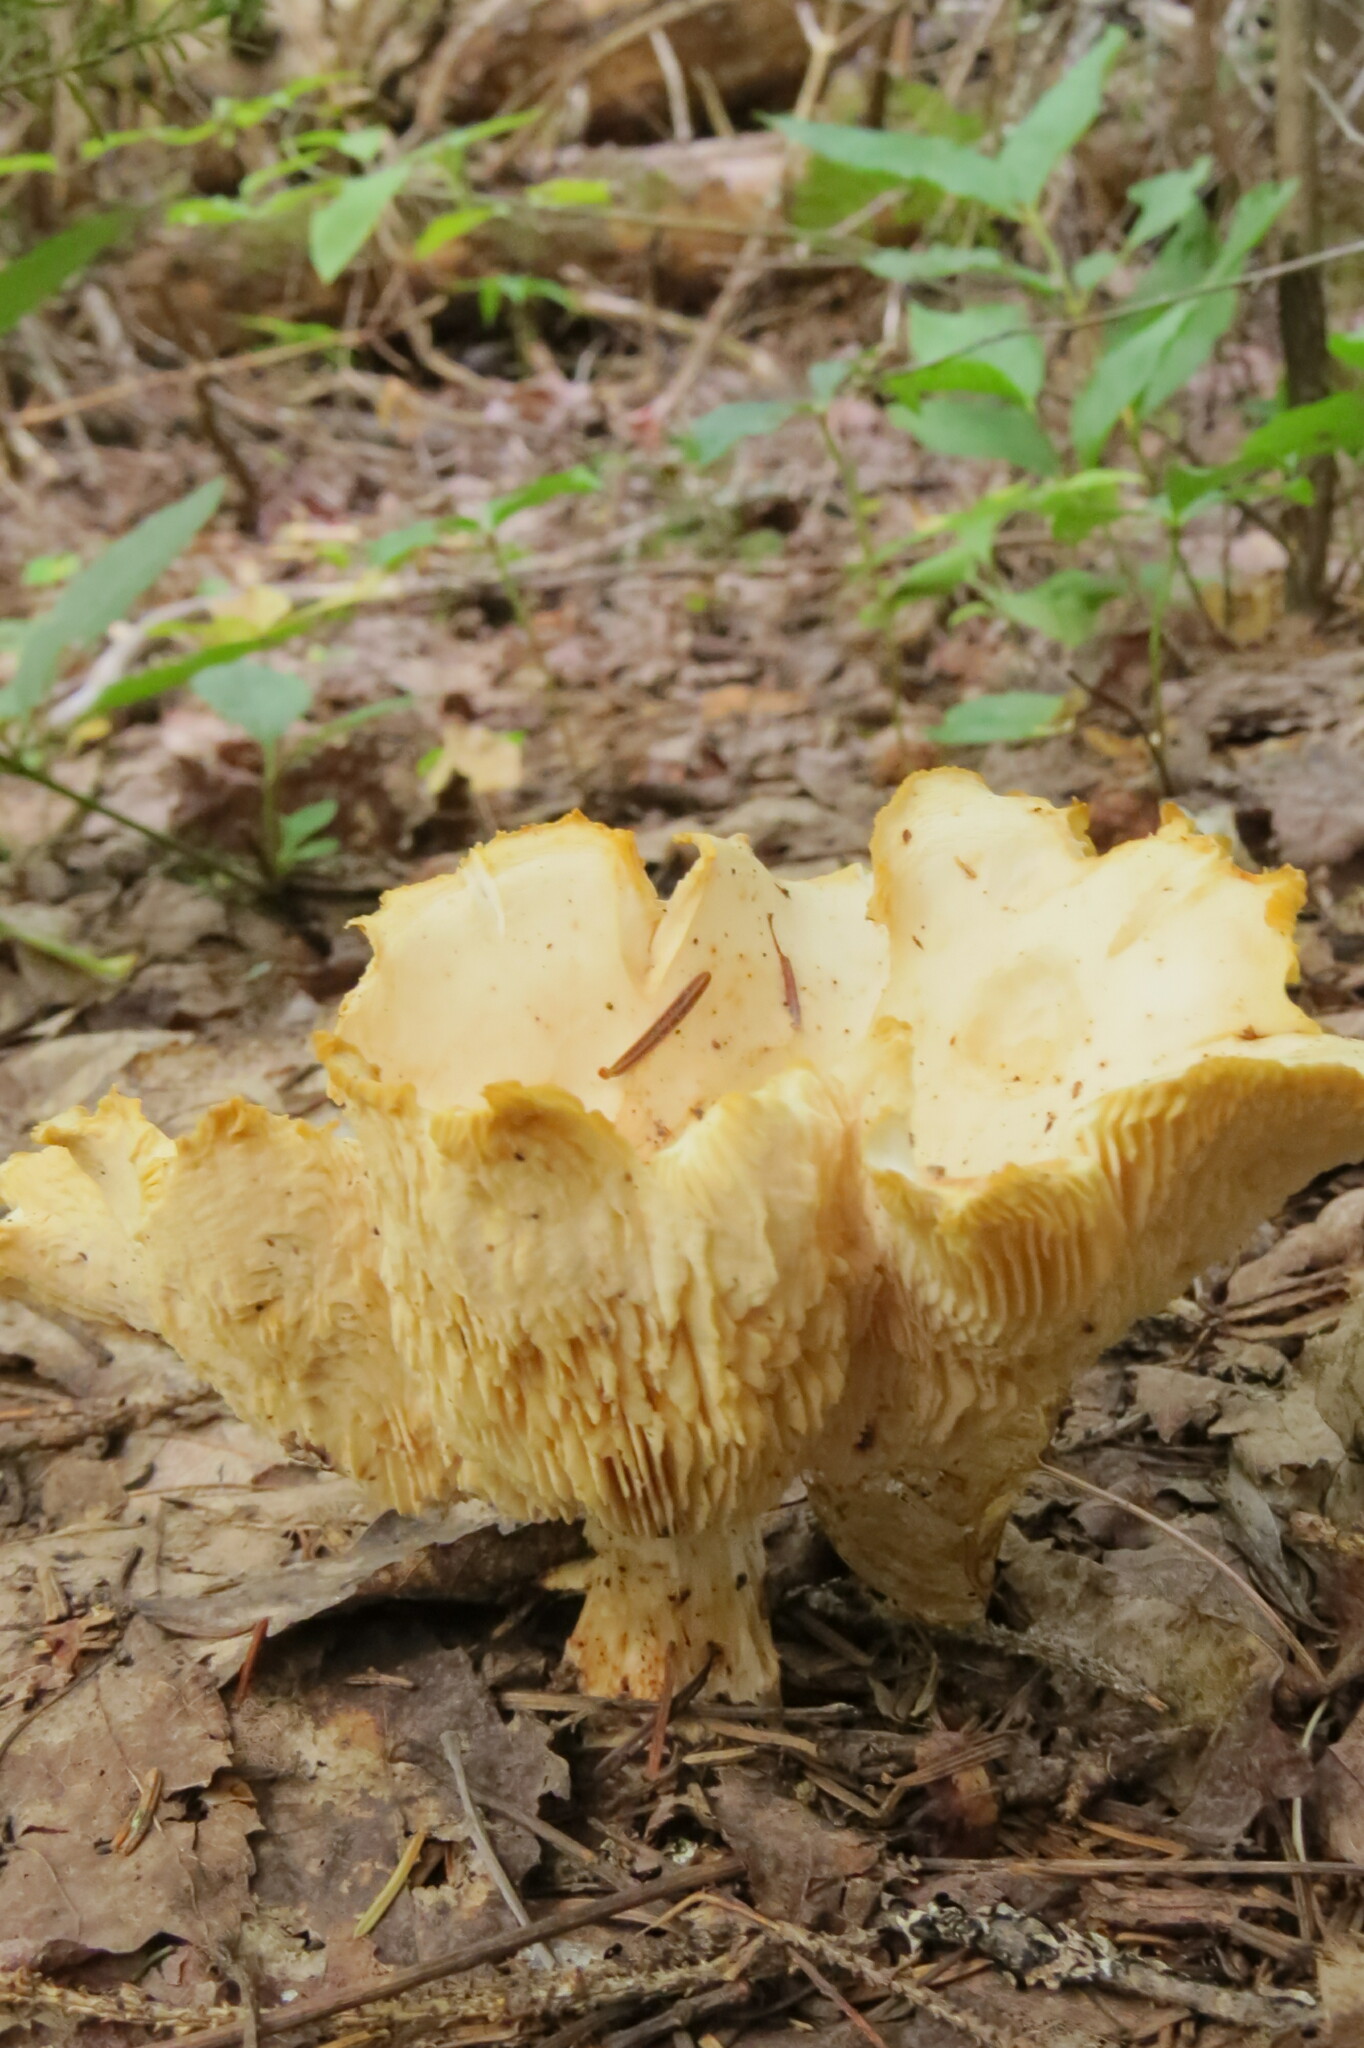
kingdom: Fungi
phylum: Basidiomycota
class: Agaricomycetes
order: Agaricales
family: Omphalotaceae
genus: Rhodocollybia
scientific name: Rhodocollybia maculata
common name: Spotted tough-shank
